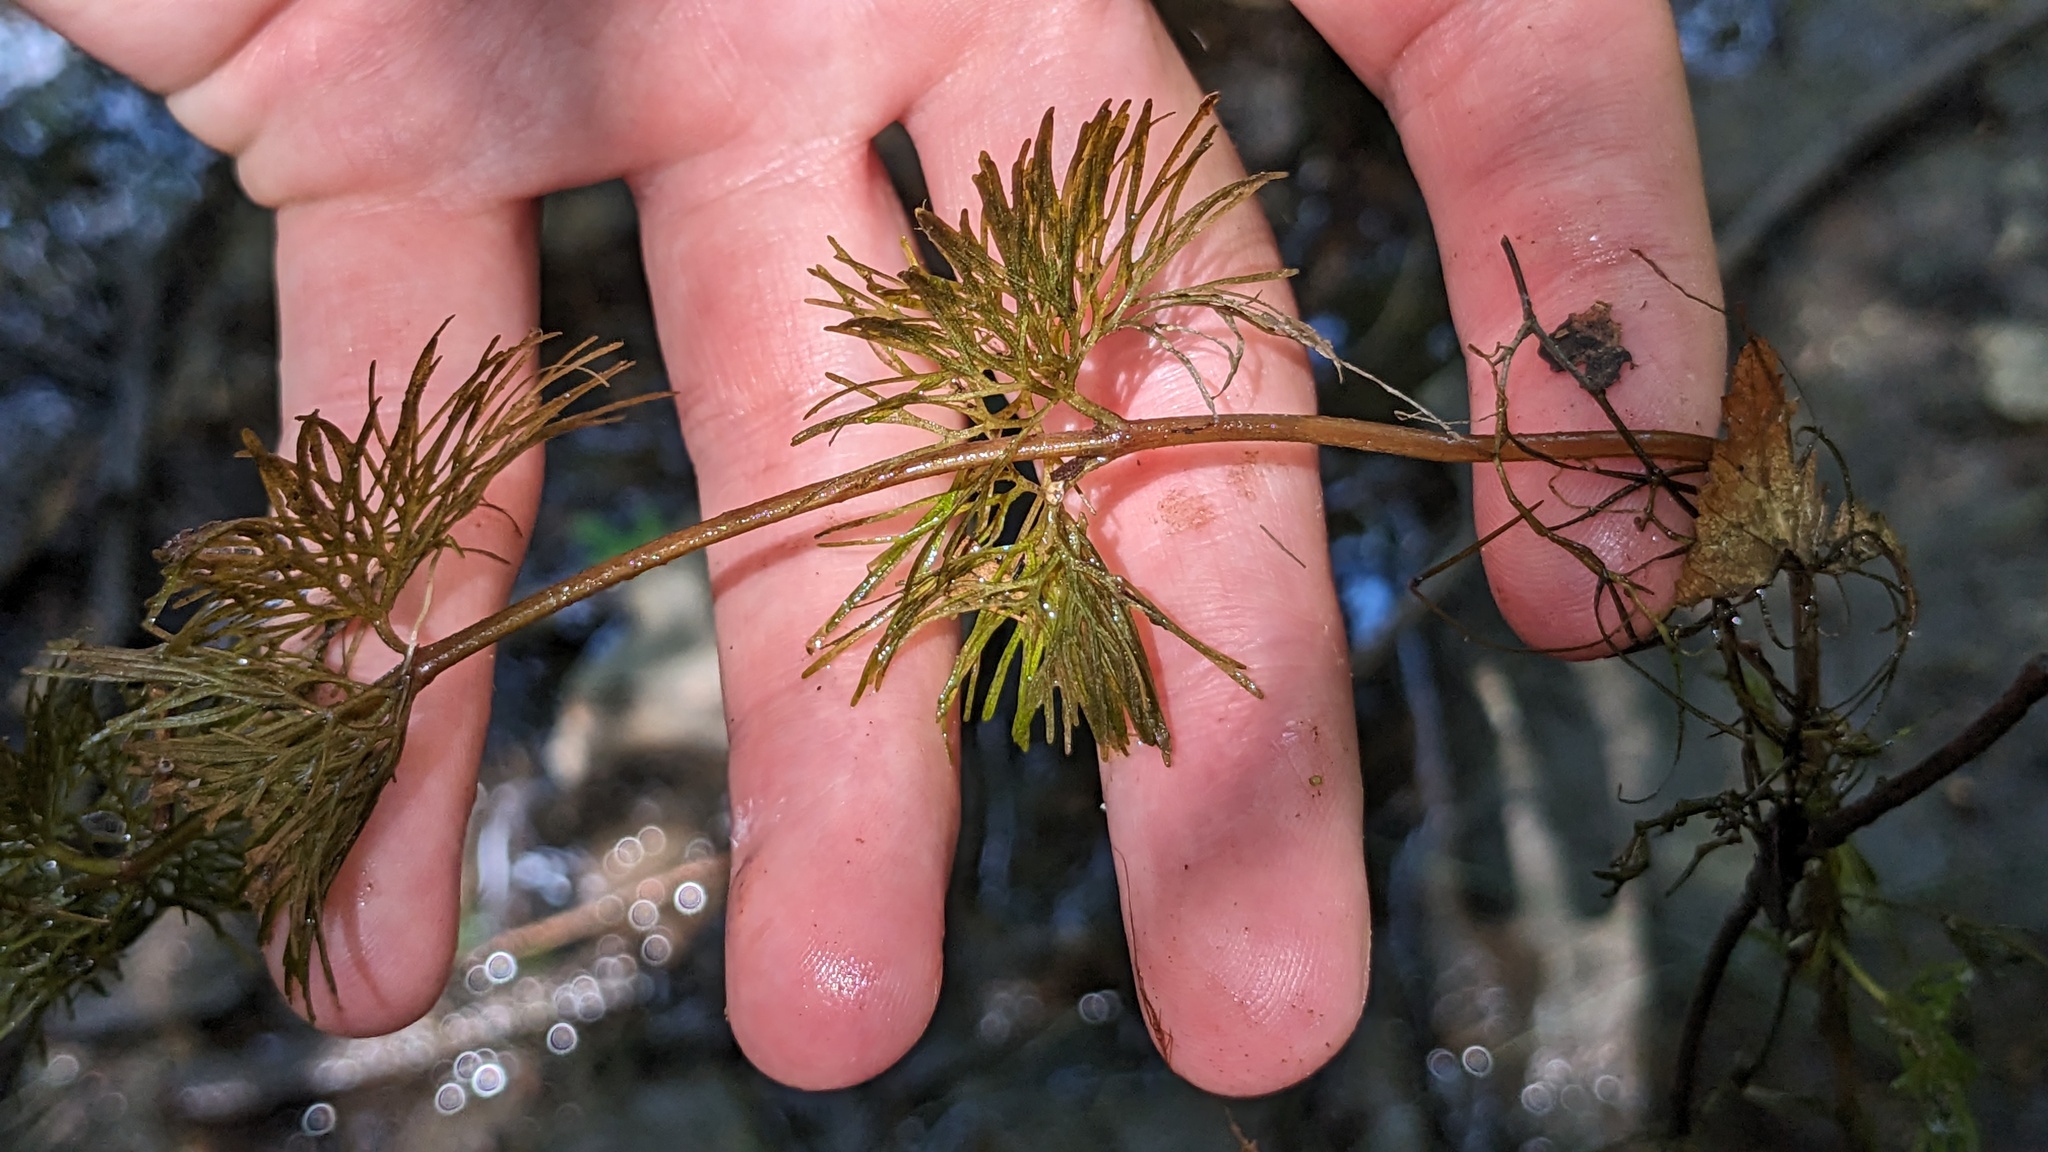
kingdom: Plantae
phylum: Tracheophyta
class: Magnoliopsida
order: Nymphaeales
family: Cabombaceae
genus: Cabomba
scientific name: Cabomba caroliniana
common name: Fanwort
